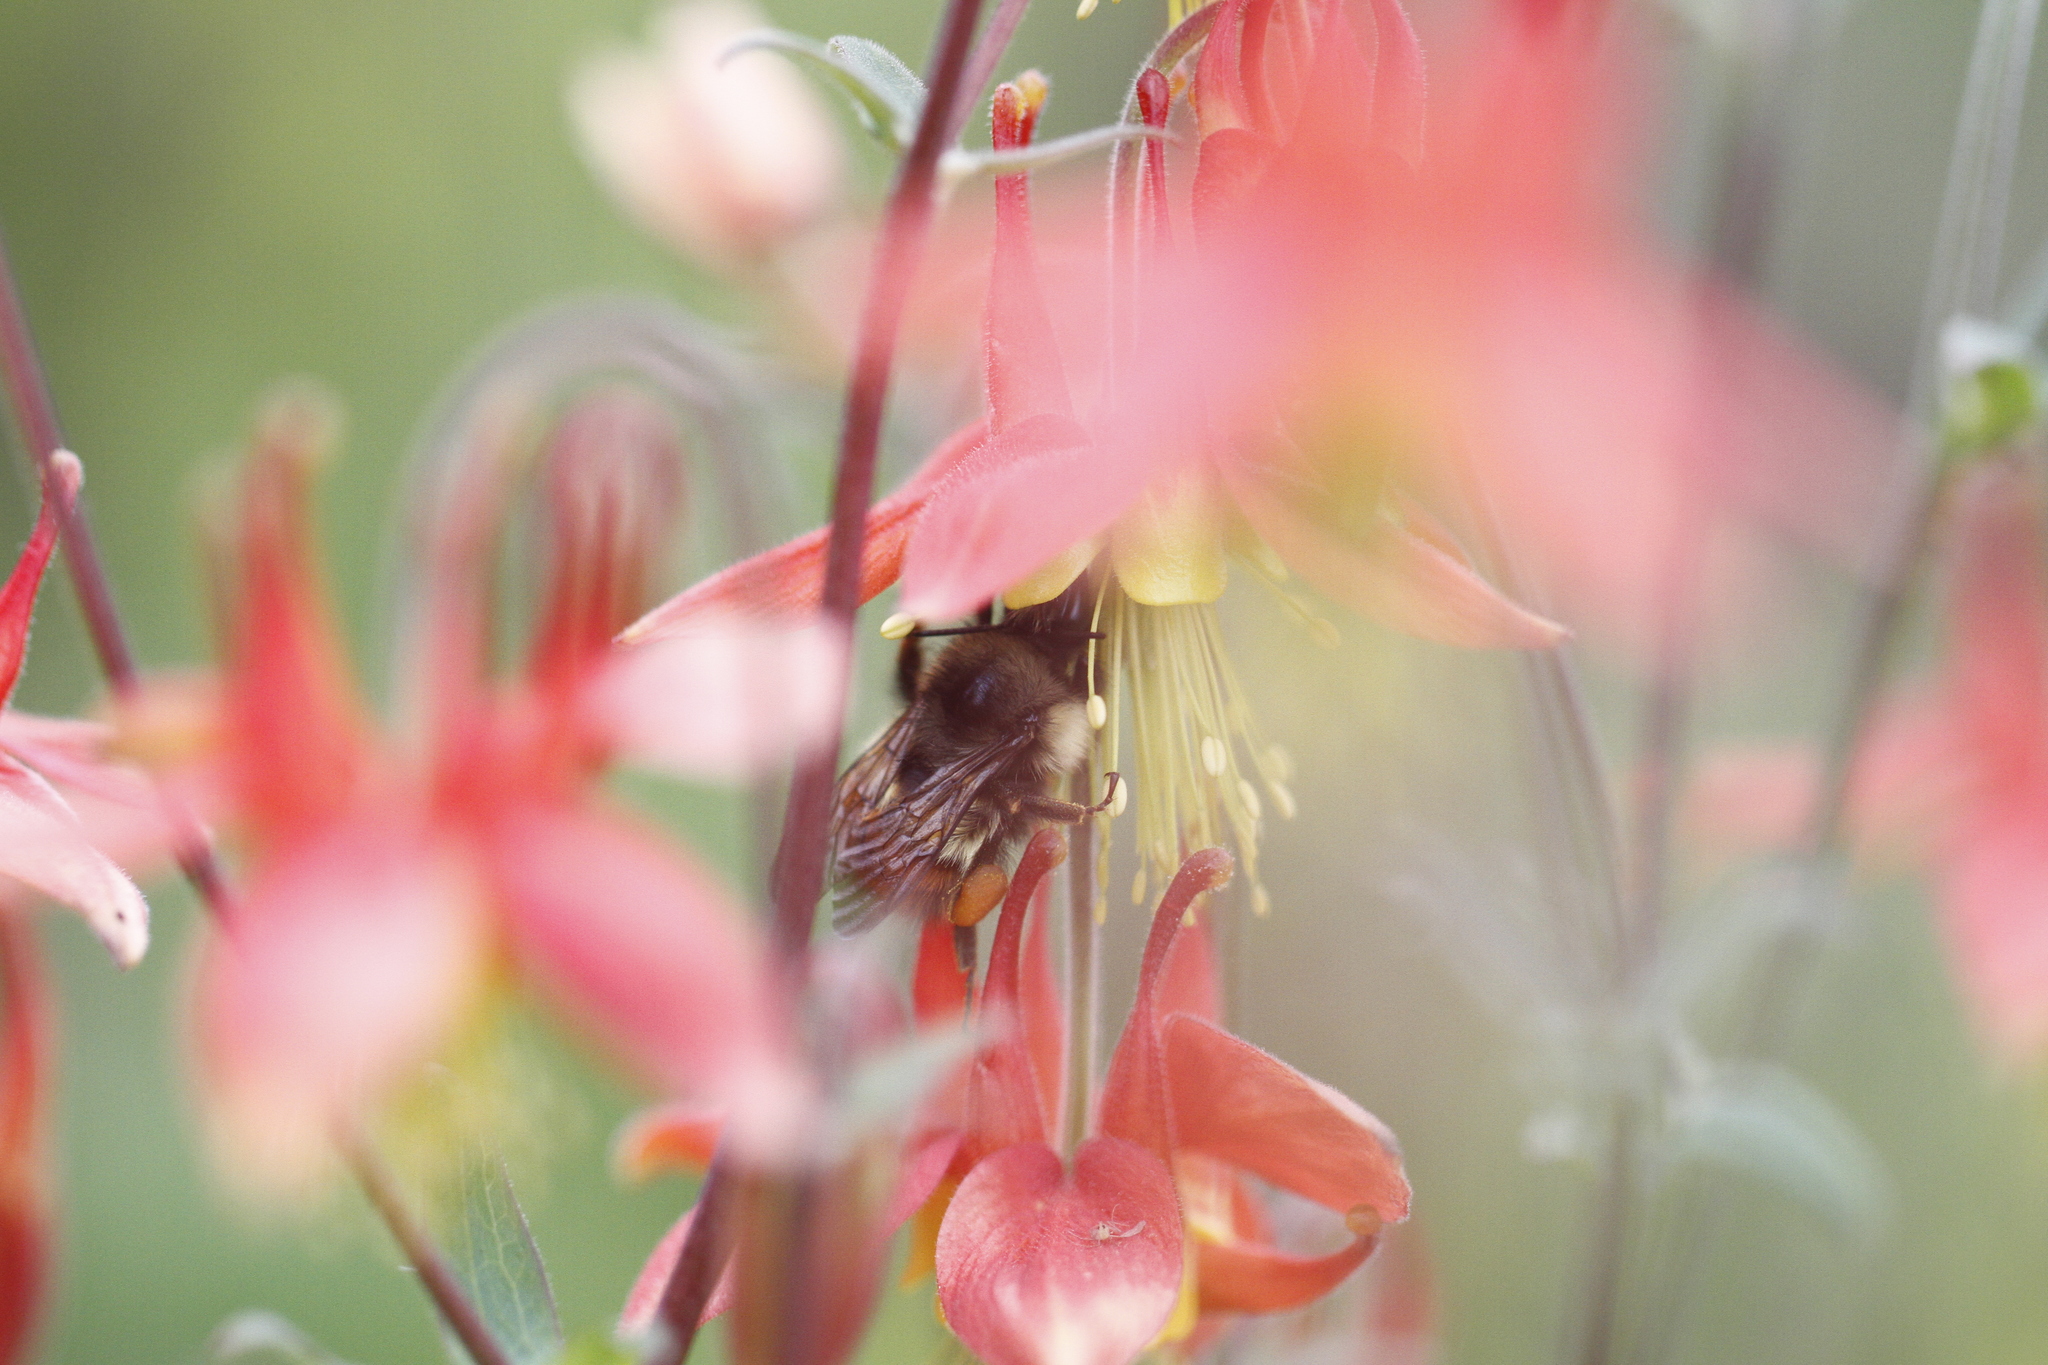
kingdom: Animalia
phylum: Arthropoda
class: Insecta
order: Hymenoptera
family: Apidae
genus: Bombus
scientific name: Bombus melanopygus
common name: Black tail bumble bee
